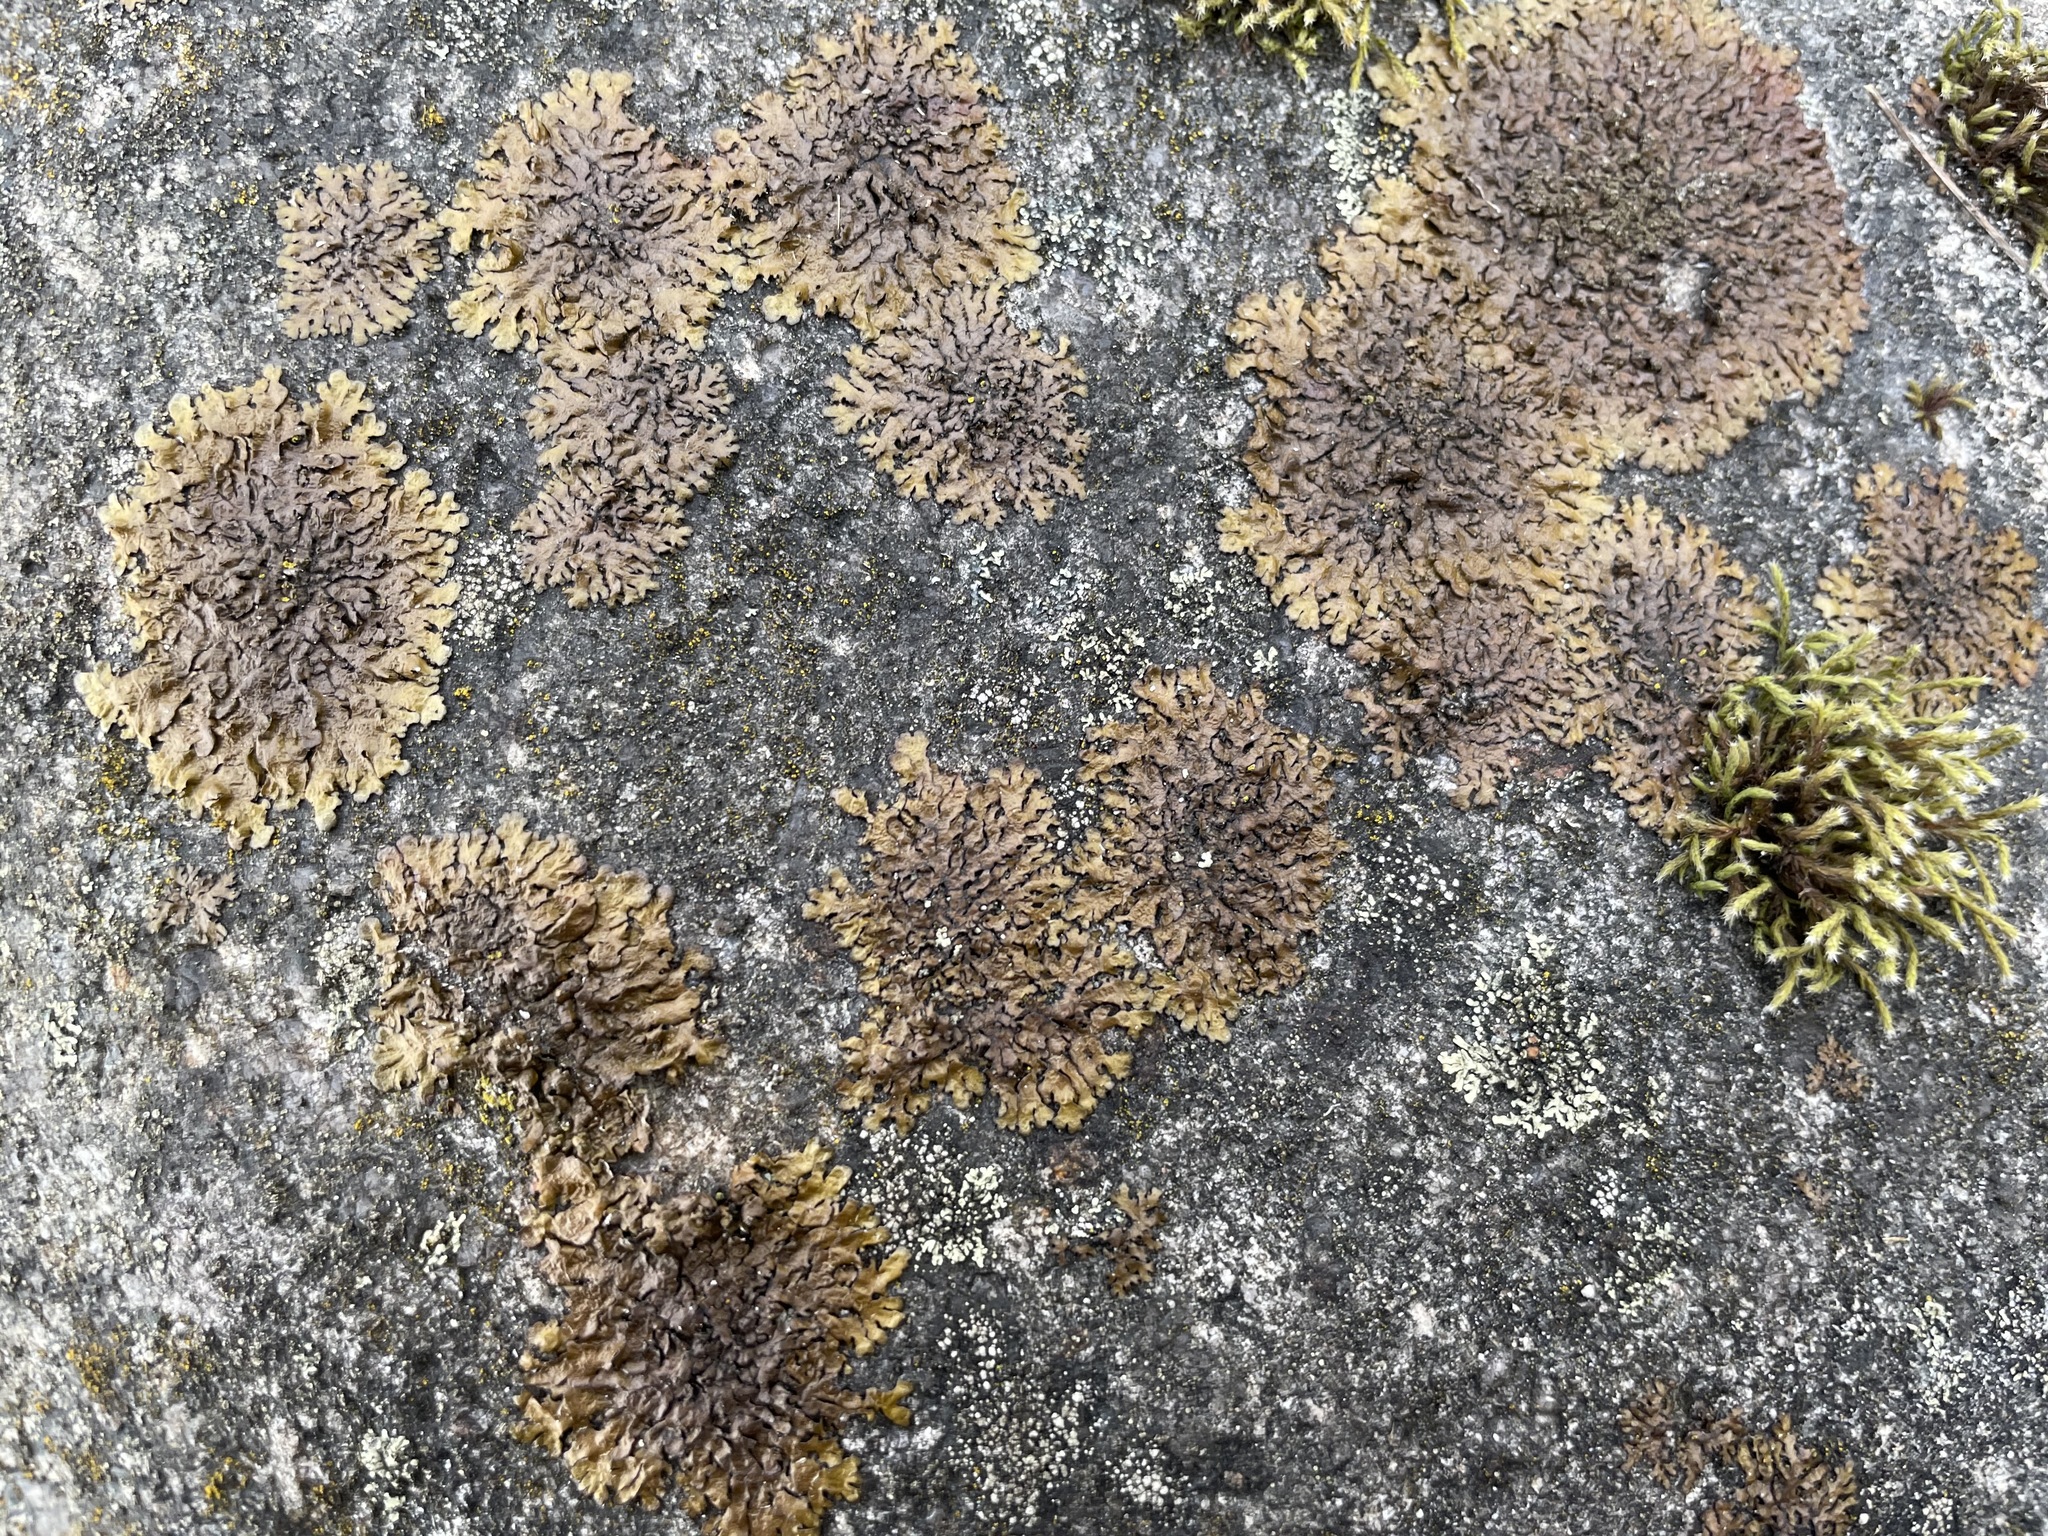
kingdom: Fungi
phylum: Ascomycota
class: Lecanoromycetes
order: Lecanorales
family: Parmeliaceae
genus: Neofuscelia
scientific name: Neofuscelia
